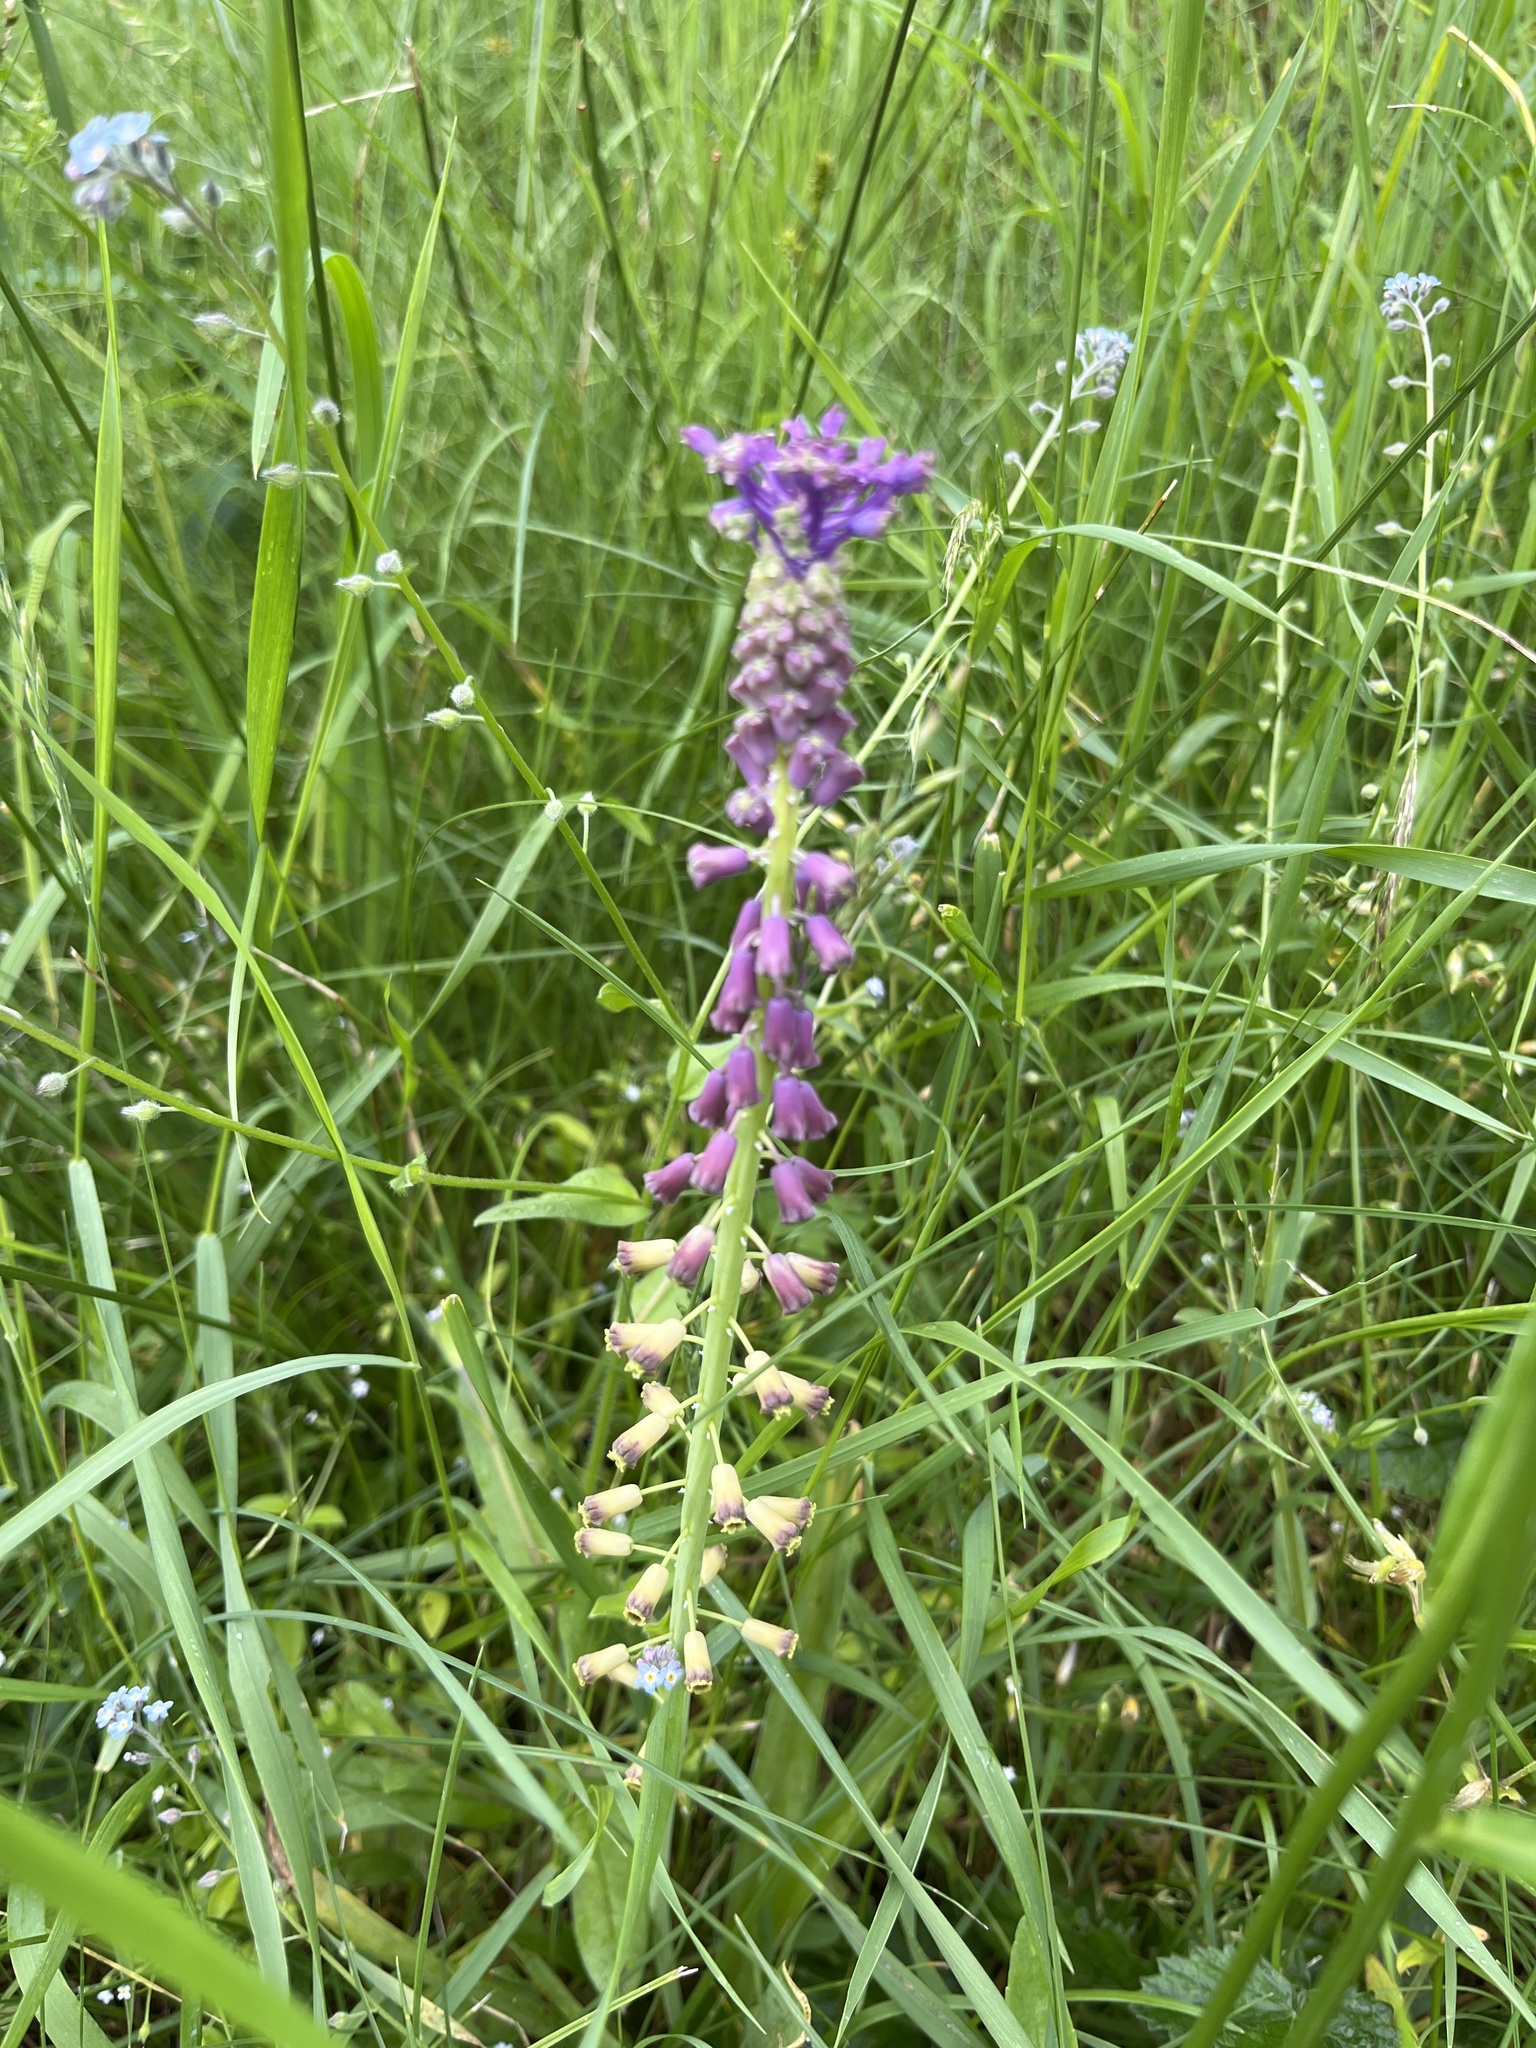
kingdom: Plantae
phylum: Tracheophyta
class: Liliopsida
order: Asparagales
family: Asparagaceae
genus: Muscari
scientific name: Muscari comosum
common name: Tassel hyacinth
